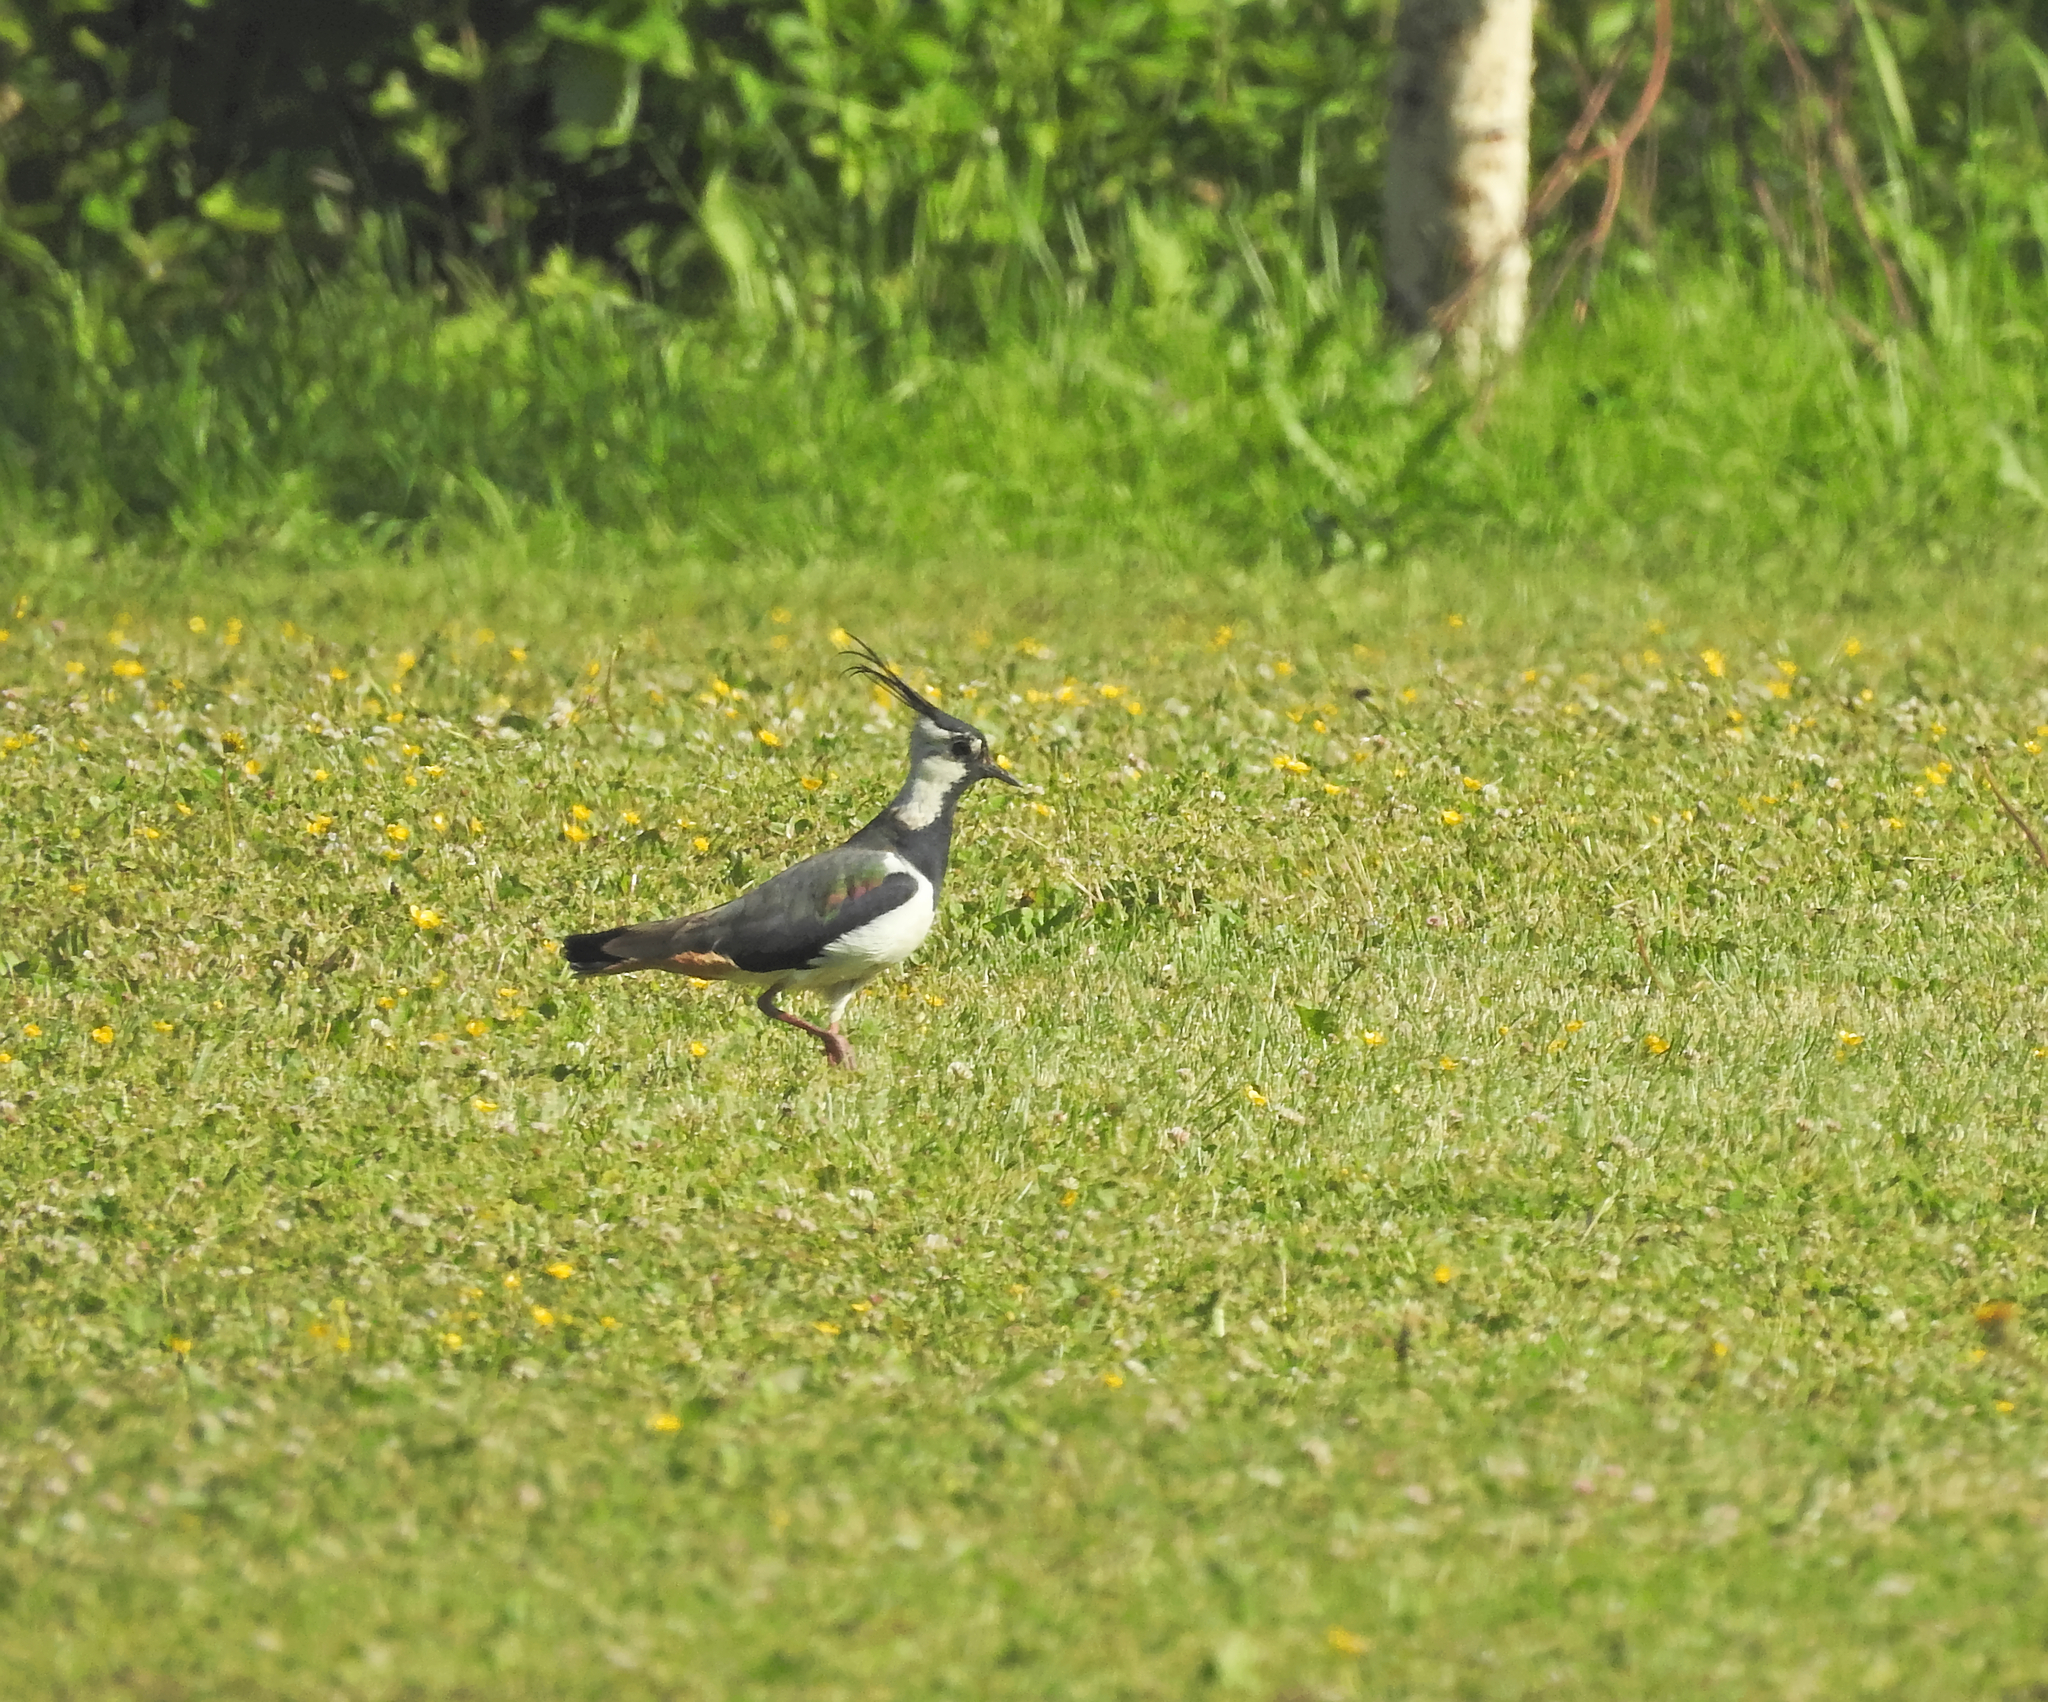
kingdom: Animalia
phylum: Chordata
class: Aves
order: Charadriiformes
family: Charadriidae
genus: Vanellus
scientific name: Vanellus vanellus
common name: Northern lapwing
